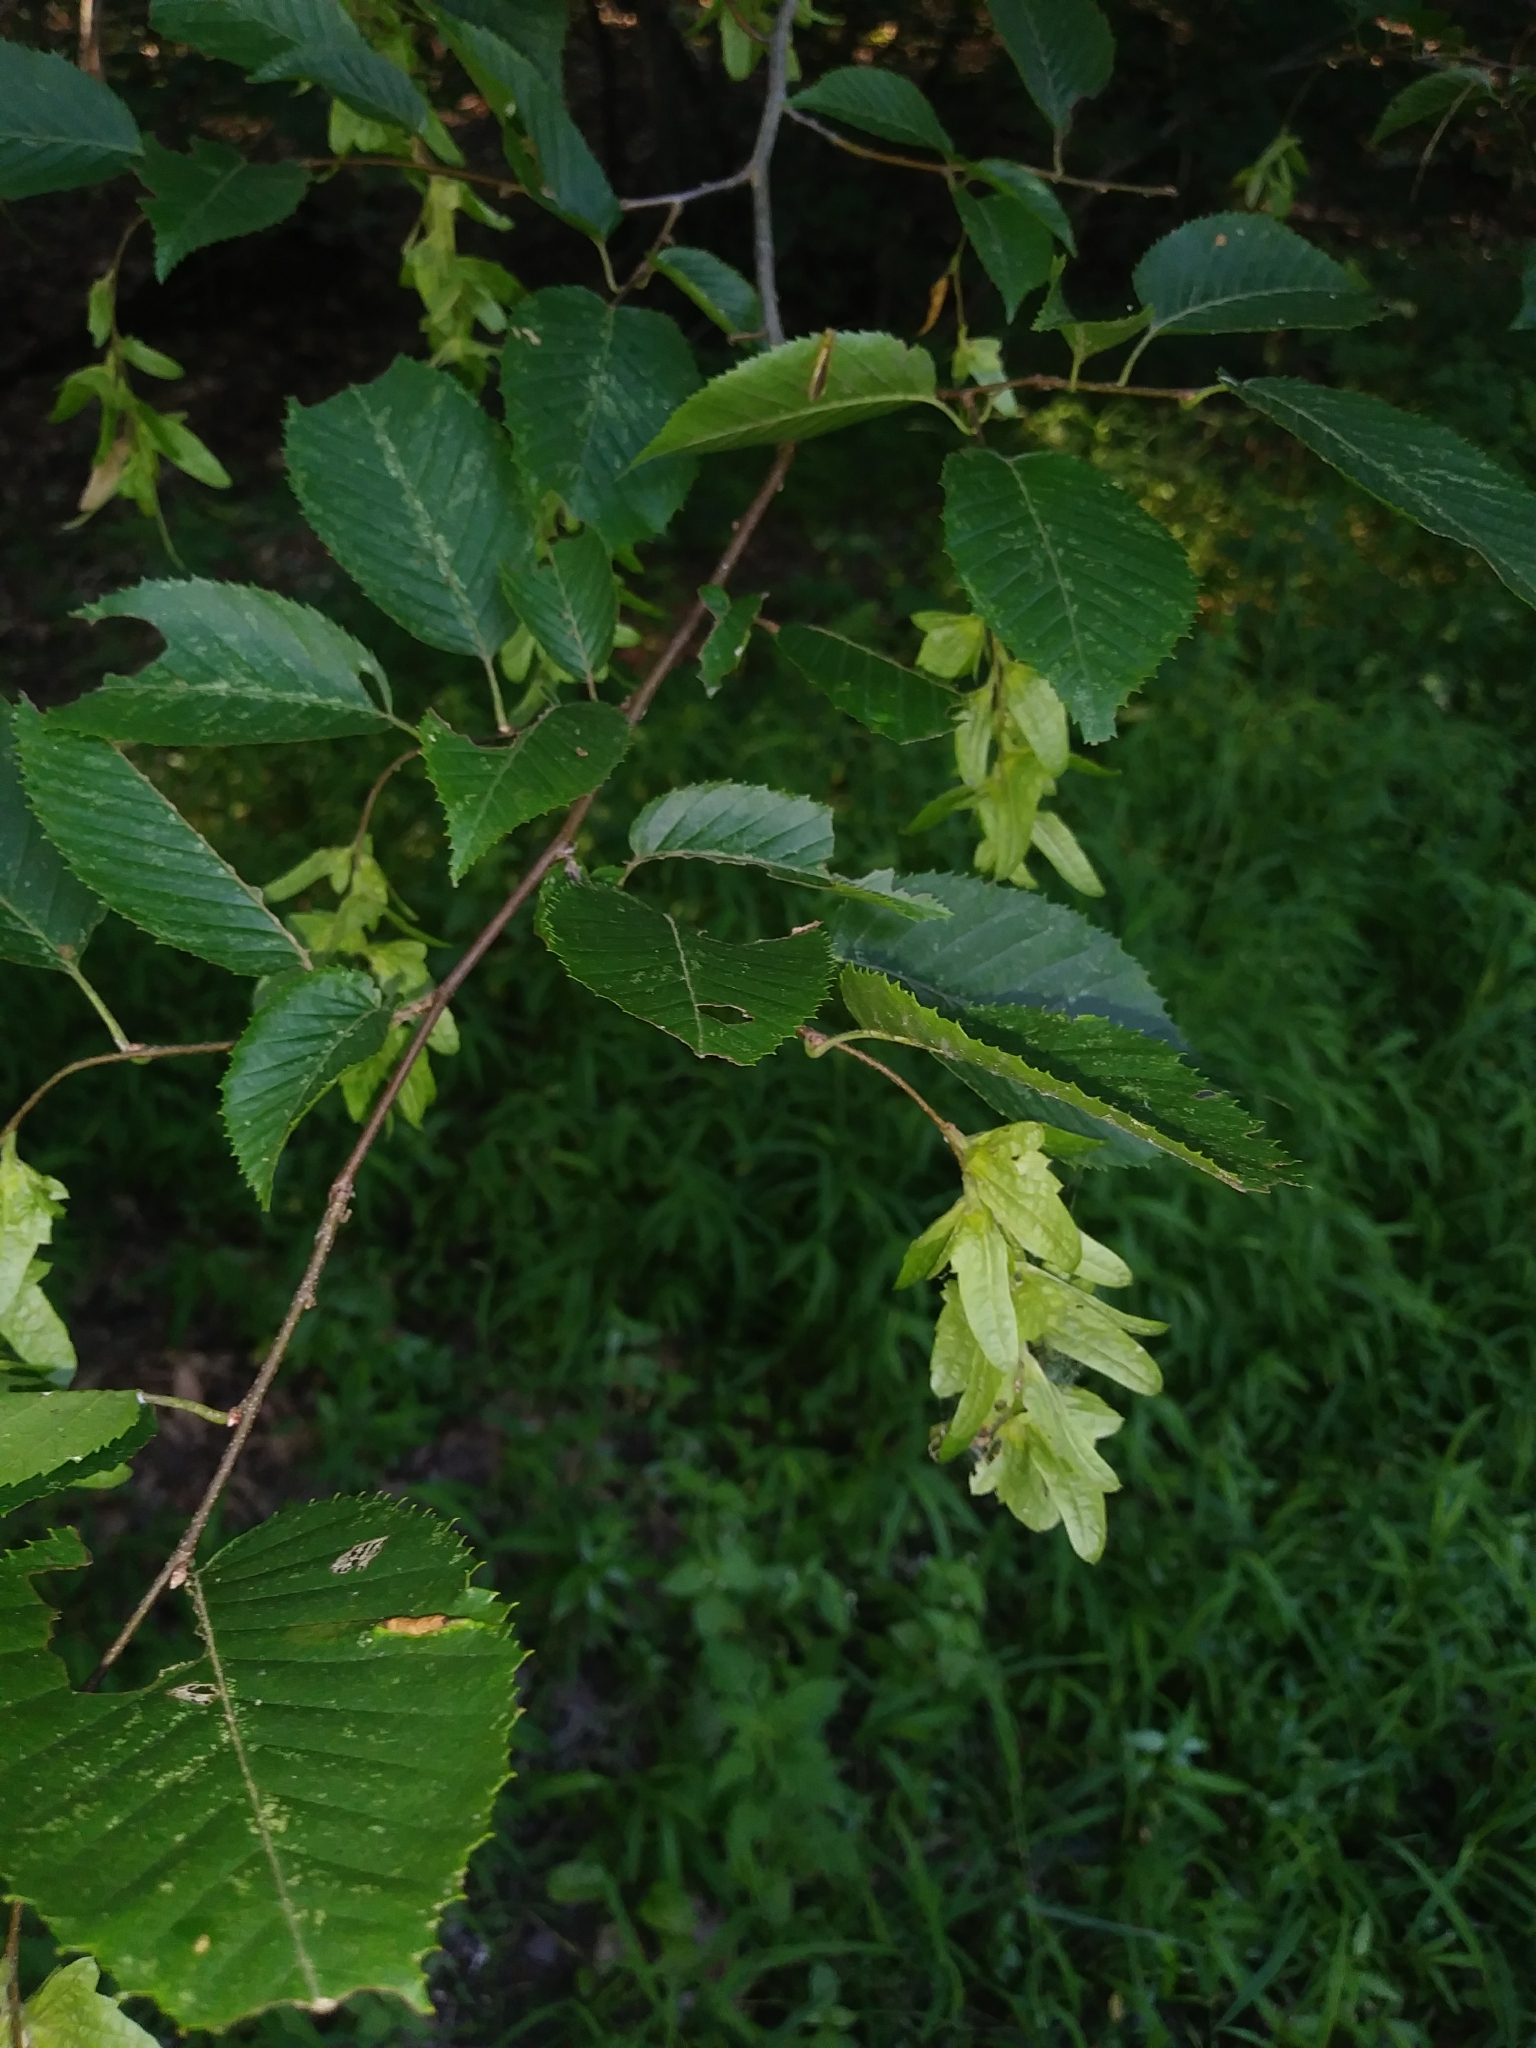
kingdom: Plantae
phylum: Tracheophyta
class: Magnoliopsida
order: Fagales
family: Betulaceae
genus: Carpinus
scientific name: Carpinus caroliniana
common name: American hornbeam
